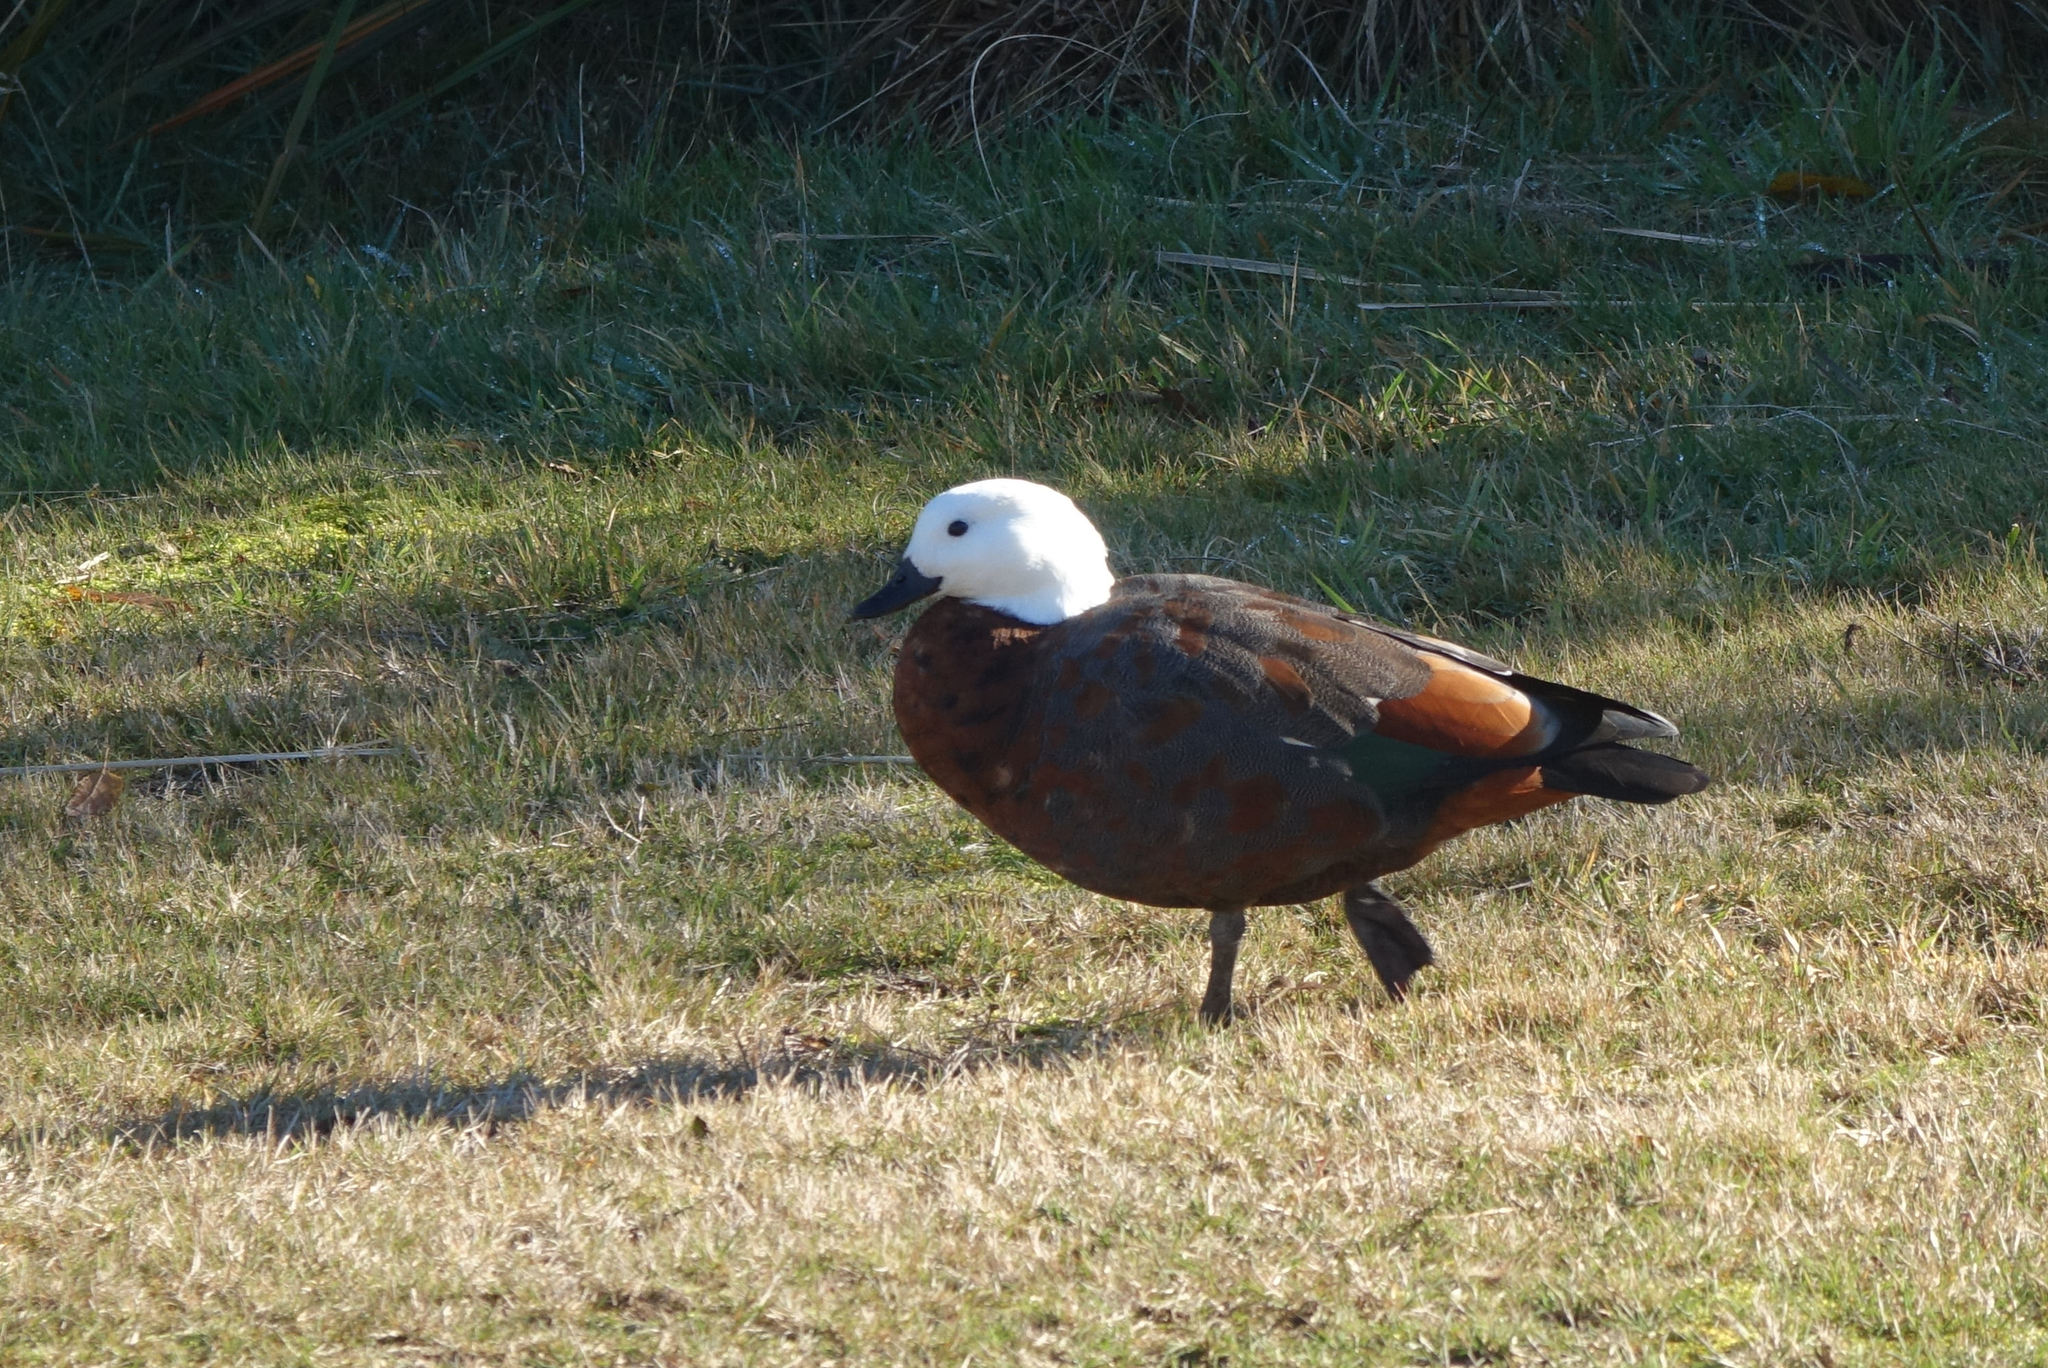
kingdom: Animalia
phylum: Chordata
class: Aves
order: Anseriformes
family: Anatidae
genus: Tadorna
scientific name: Tadorna variegata
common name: Paradise shelduck
